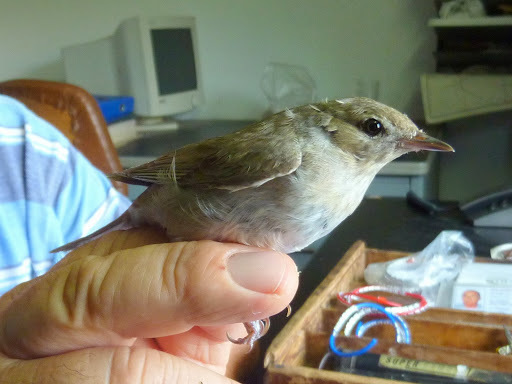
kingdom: Animalia
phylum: Chordata
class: Aves
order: Passeriformes
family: Sylviidae
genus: Sylvia
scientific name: Sylvia borin
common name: Garden warbler
